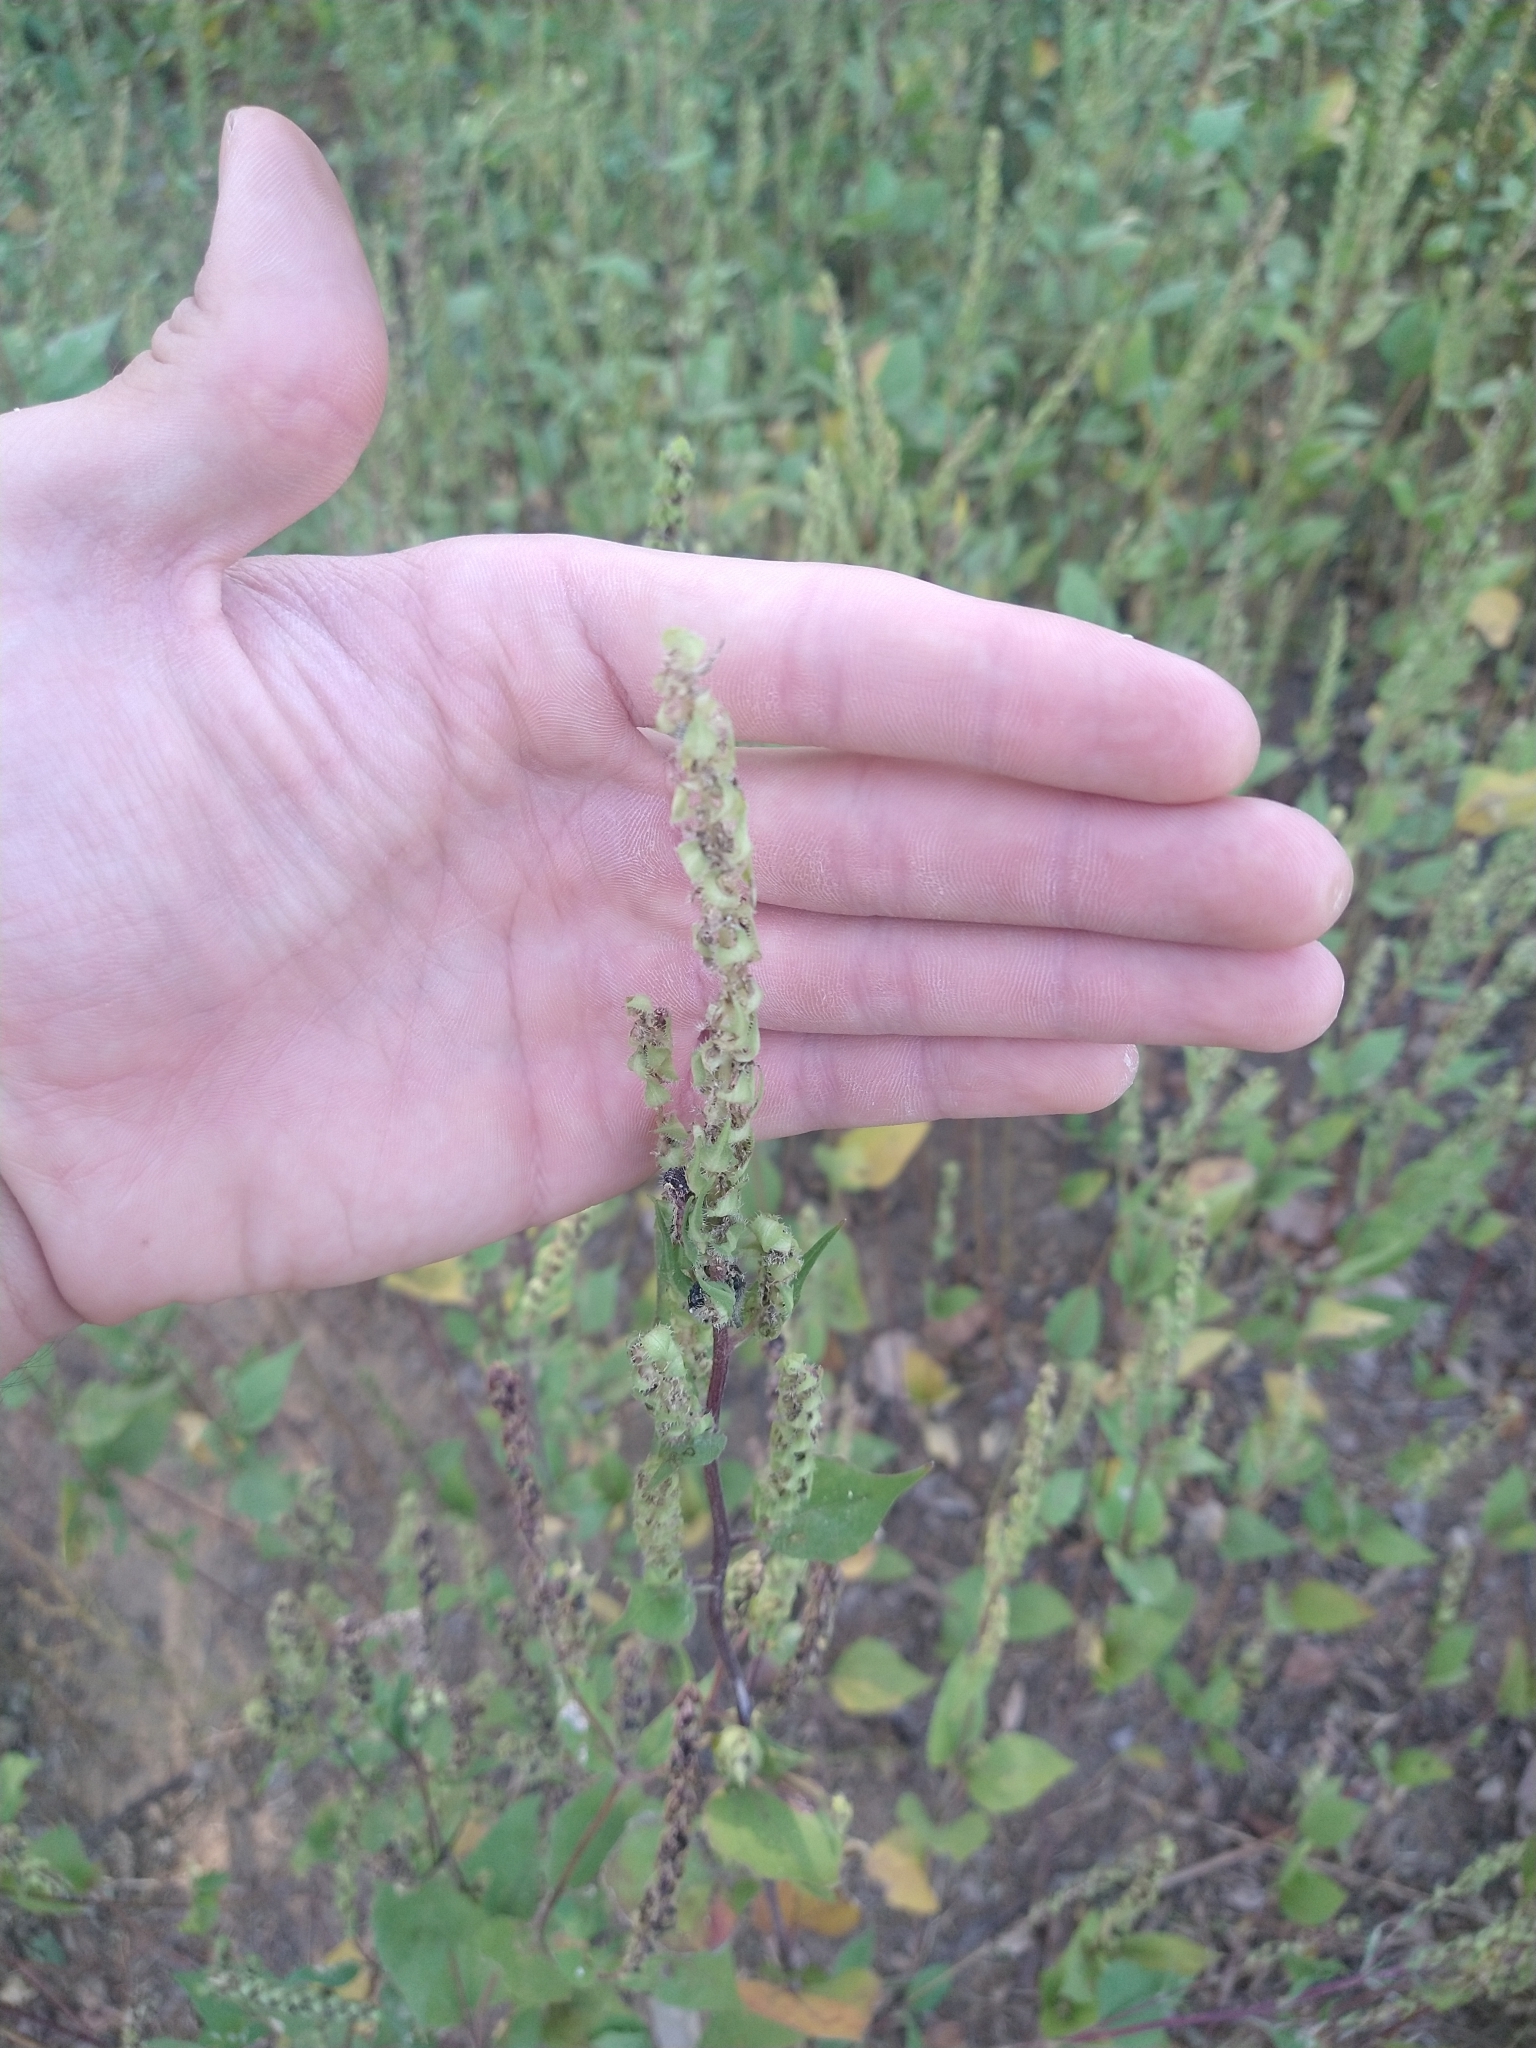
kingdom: Plantae
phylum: Tracheophyta
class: Magnoliopsida
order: Asterales
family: Asteraceae
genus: Iva
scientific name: Iva annua
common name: Marsh-elder
